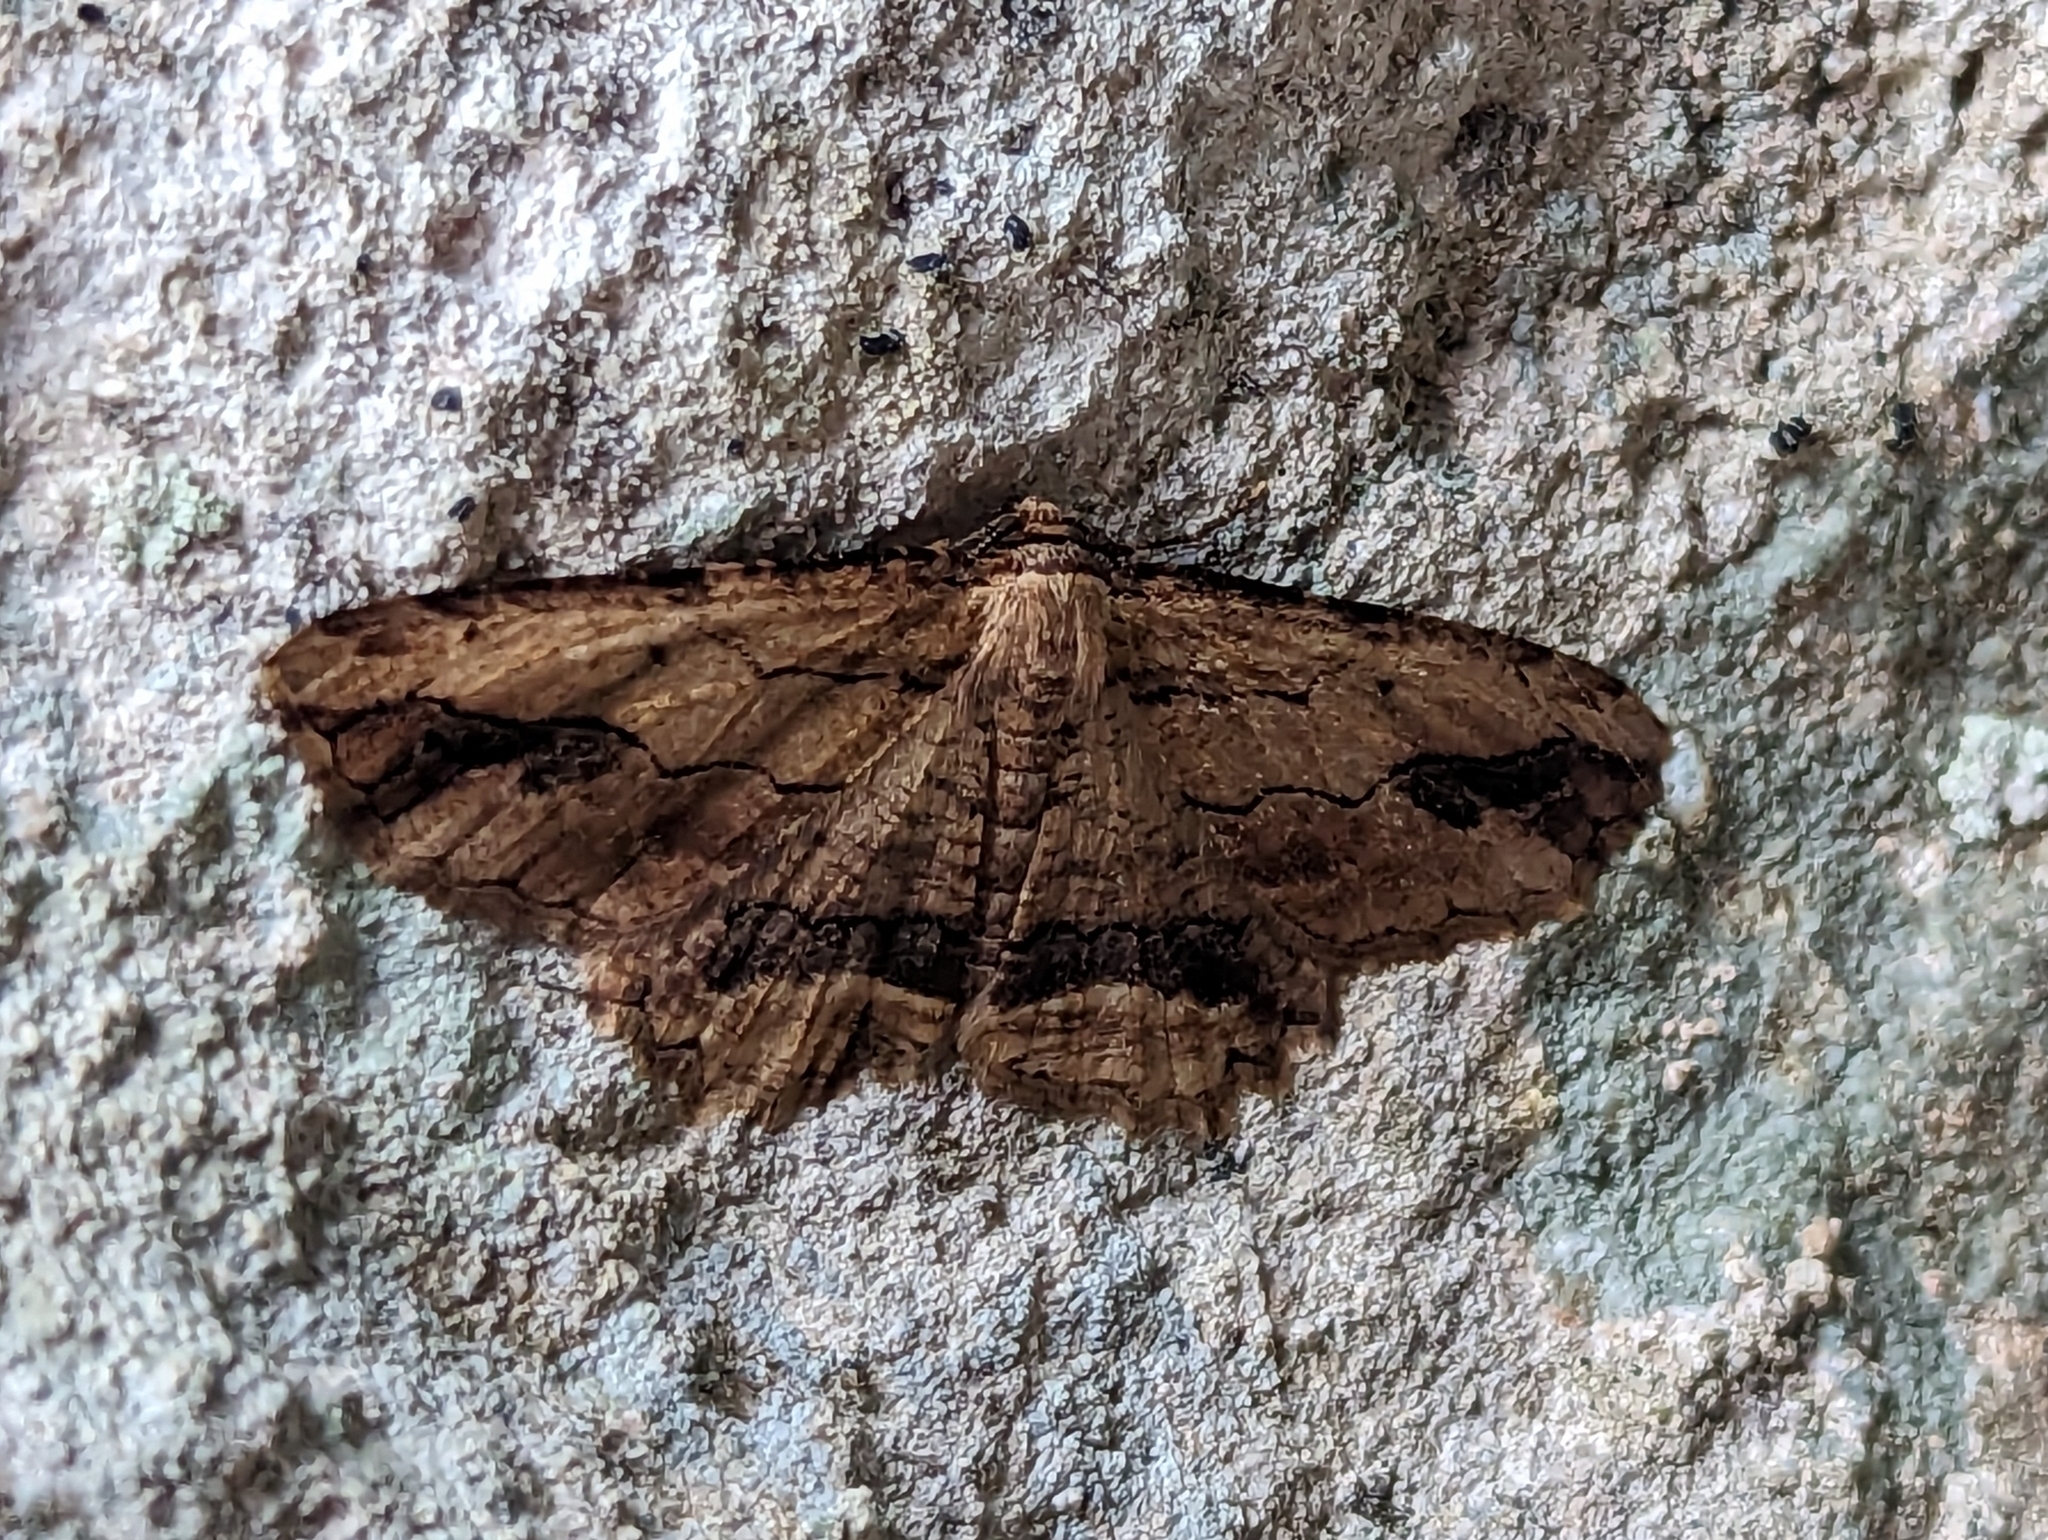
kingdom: Animalia
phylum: Arthropoda
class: Insecta
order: Lepidoptera
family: Geometridae
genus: Menophra
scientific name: Menophra abruptaria
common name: Waved umber
